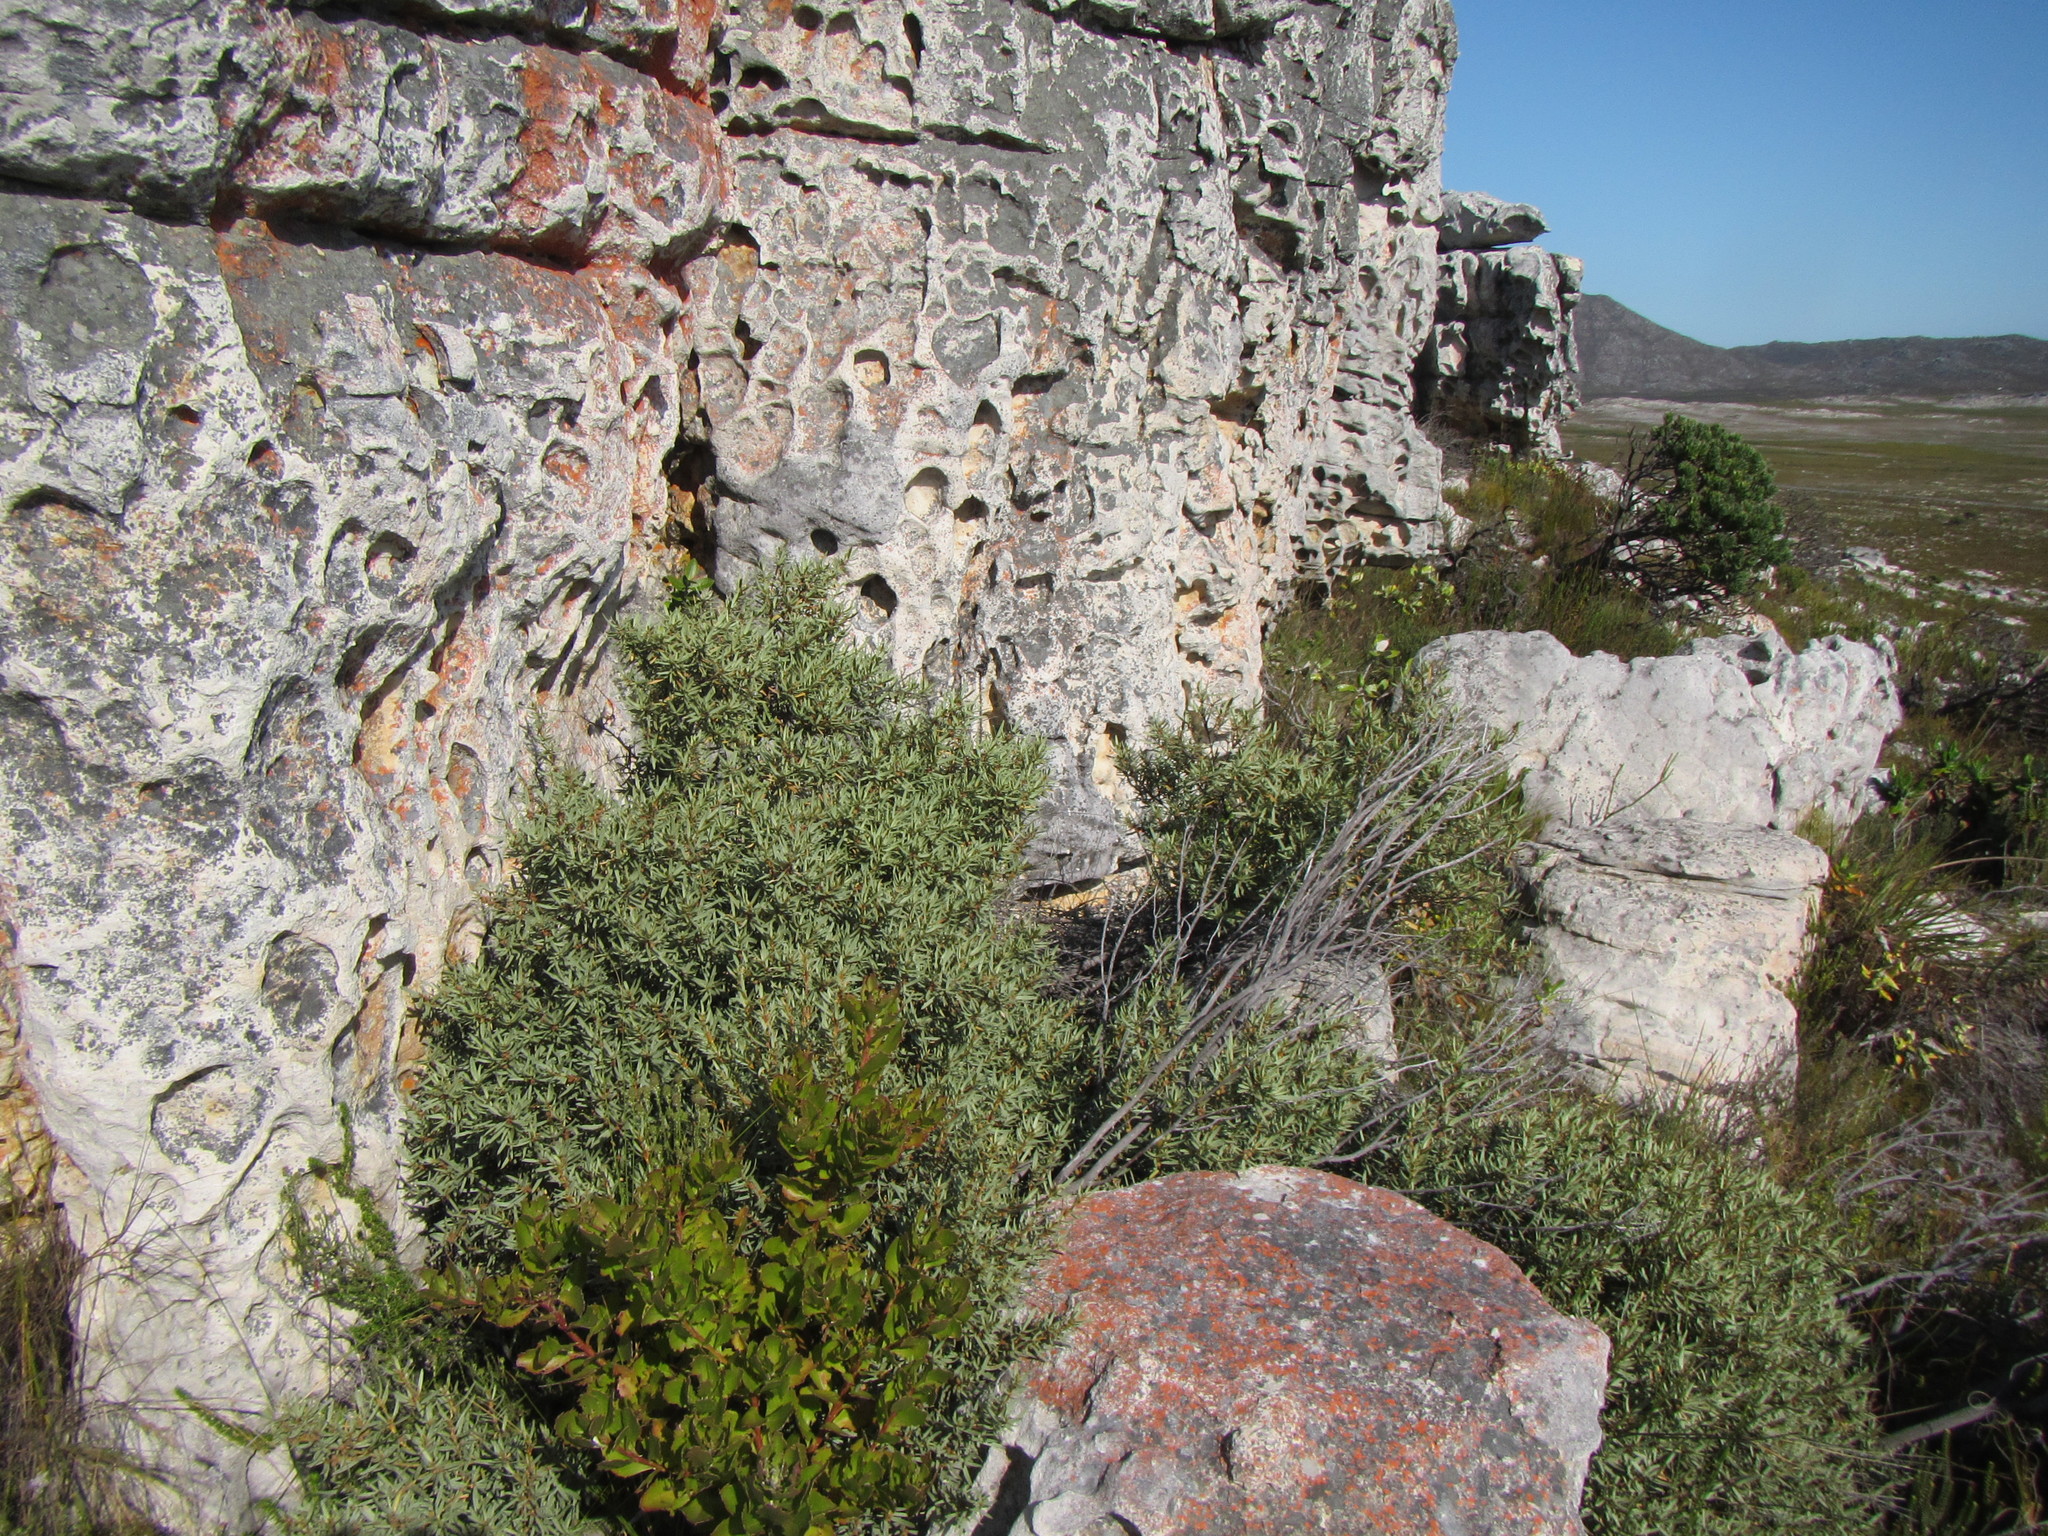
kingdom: Plantae
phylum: Tracheophyta
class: Magnoliopsida
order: Cornales
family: Grubbiaceae
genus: Grubbia
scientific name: Grubbia tomentosa
